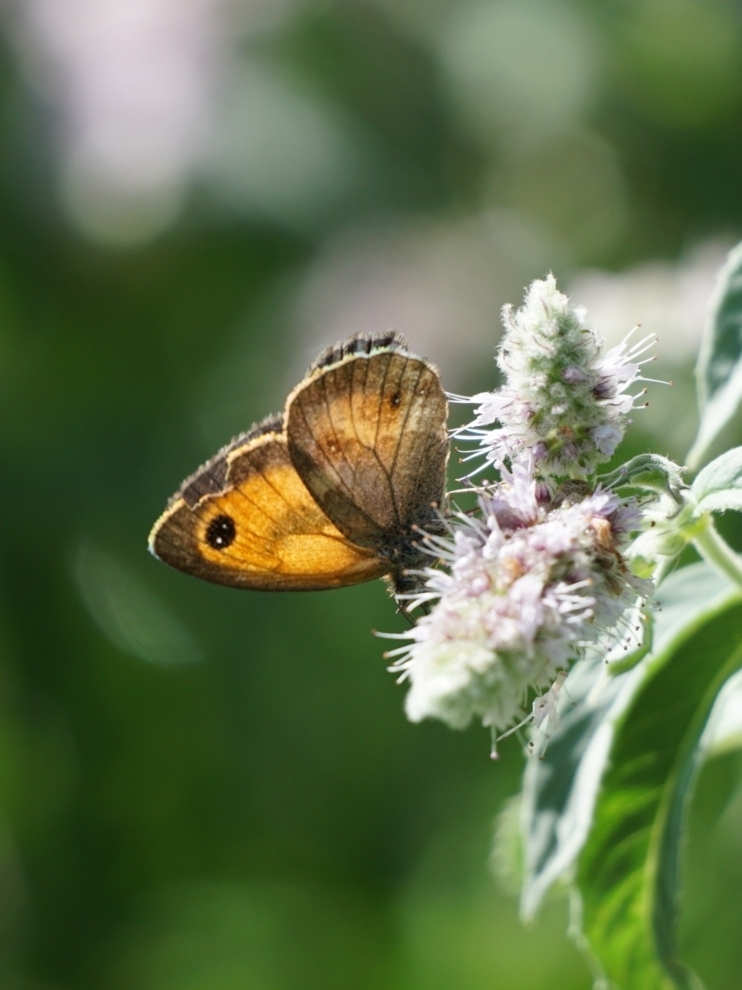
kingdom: Animalia
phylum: Arthropoda
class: Insecta
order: Lepidoptera
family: Nymphalidae
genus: Pyronia
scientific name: Pyronia tithonus
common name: Gatekeeper
